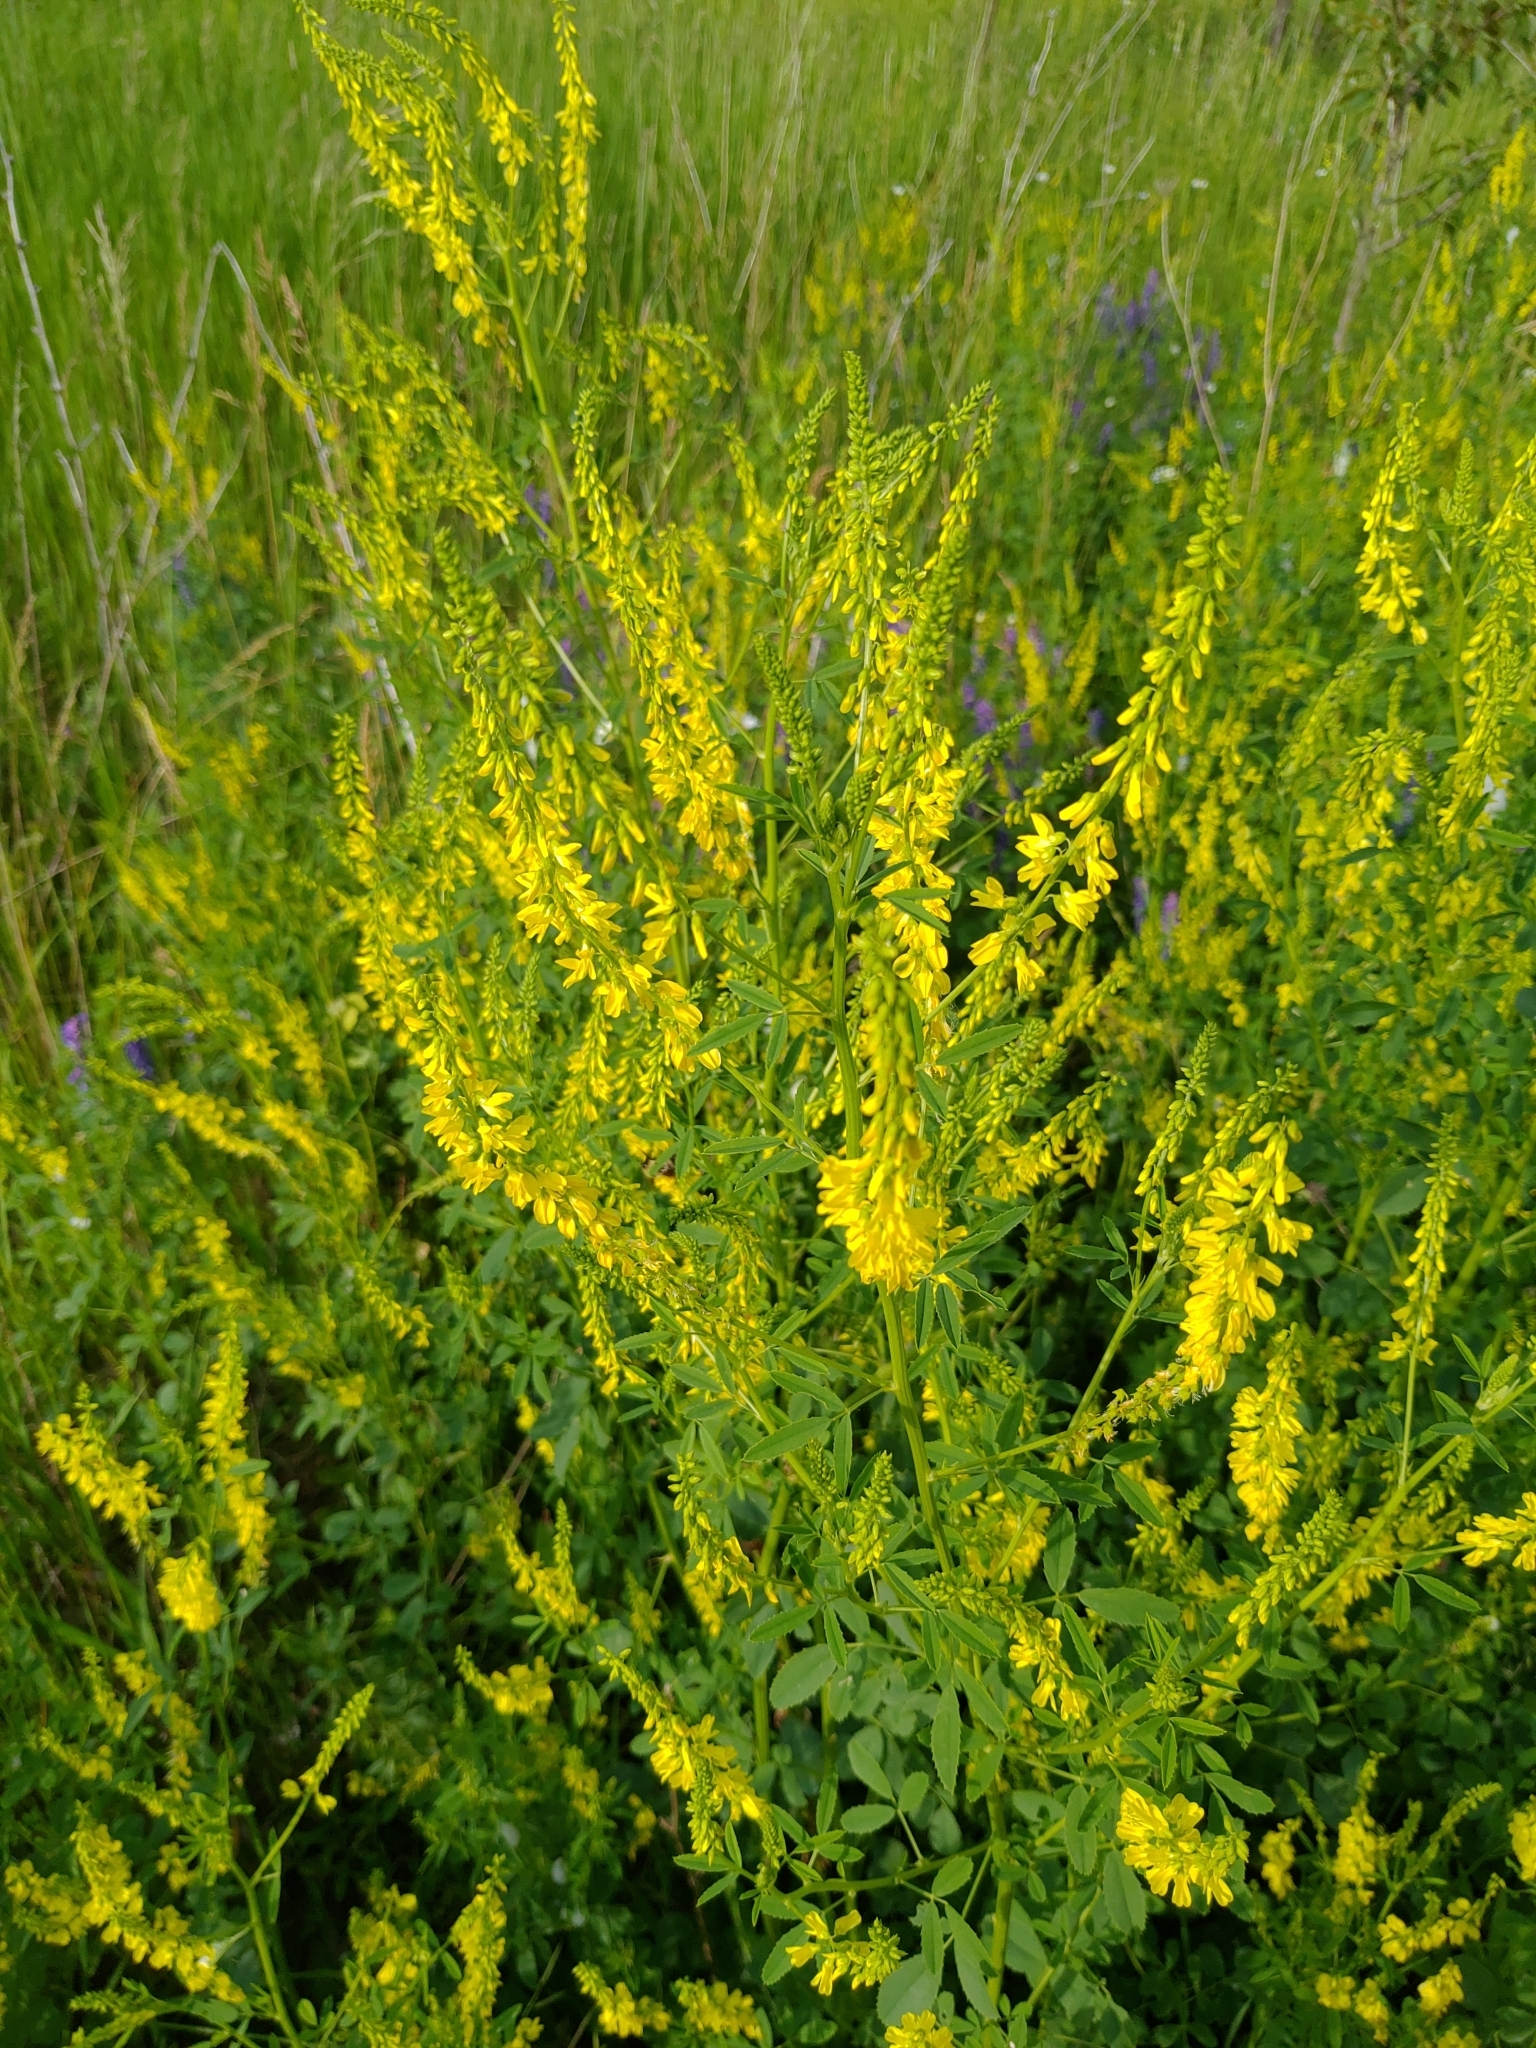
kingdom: Plantae
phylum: Tracheophyta
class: Magnoliopsida
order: Fabales
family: Fabaceae
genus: Melilotus
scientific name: Melilotus officinalis
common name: Sweetclover
